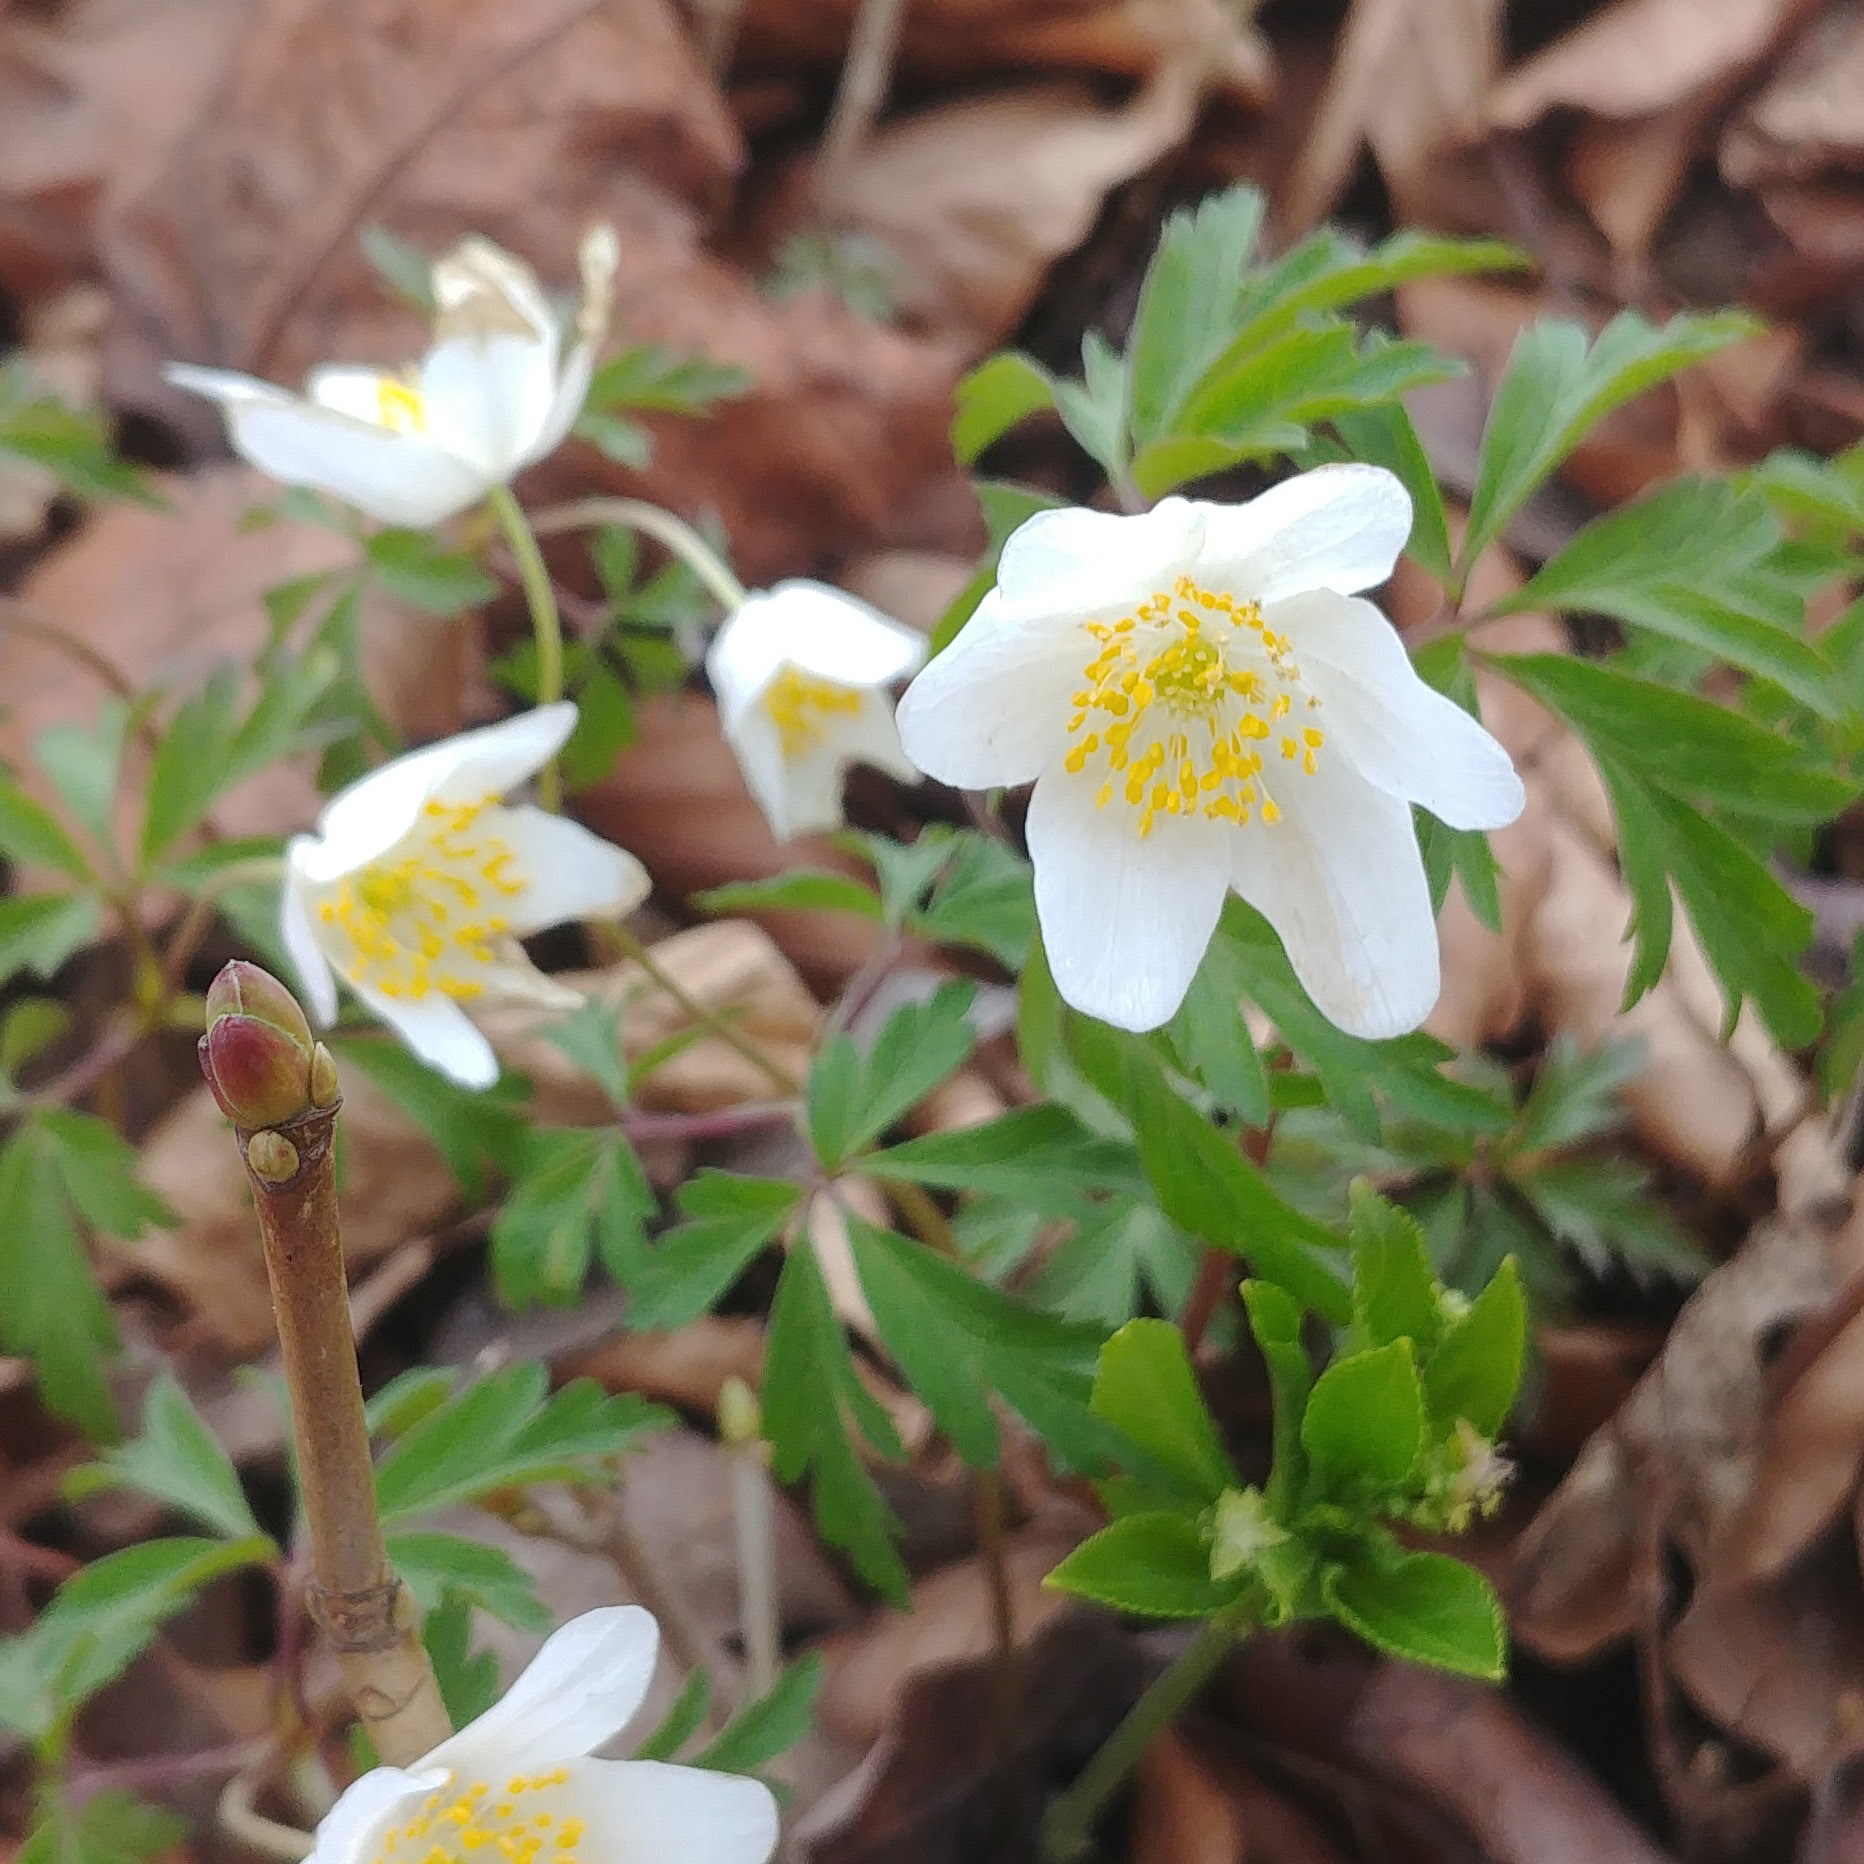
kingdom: Plantae
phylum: Tracheophyta
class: Magnoliopsida
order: Ranunculales
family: Ranunculaceae
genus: Anemone
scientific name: Anemone nemorosa
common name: Wood anemone
